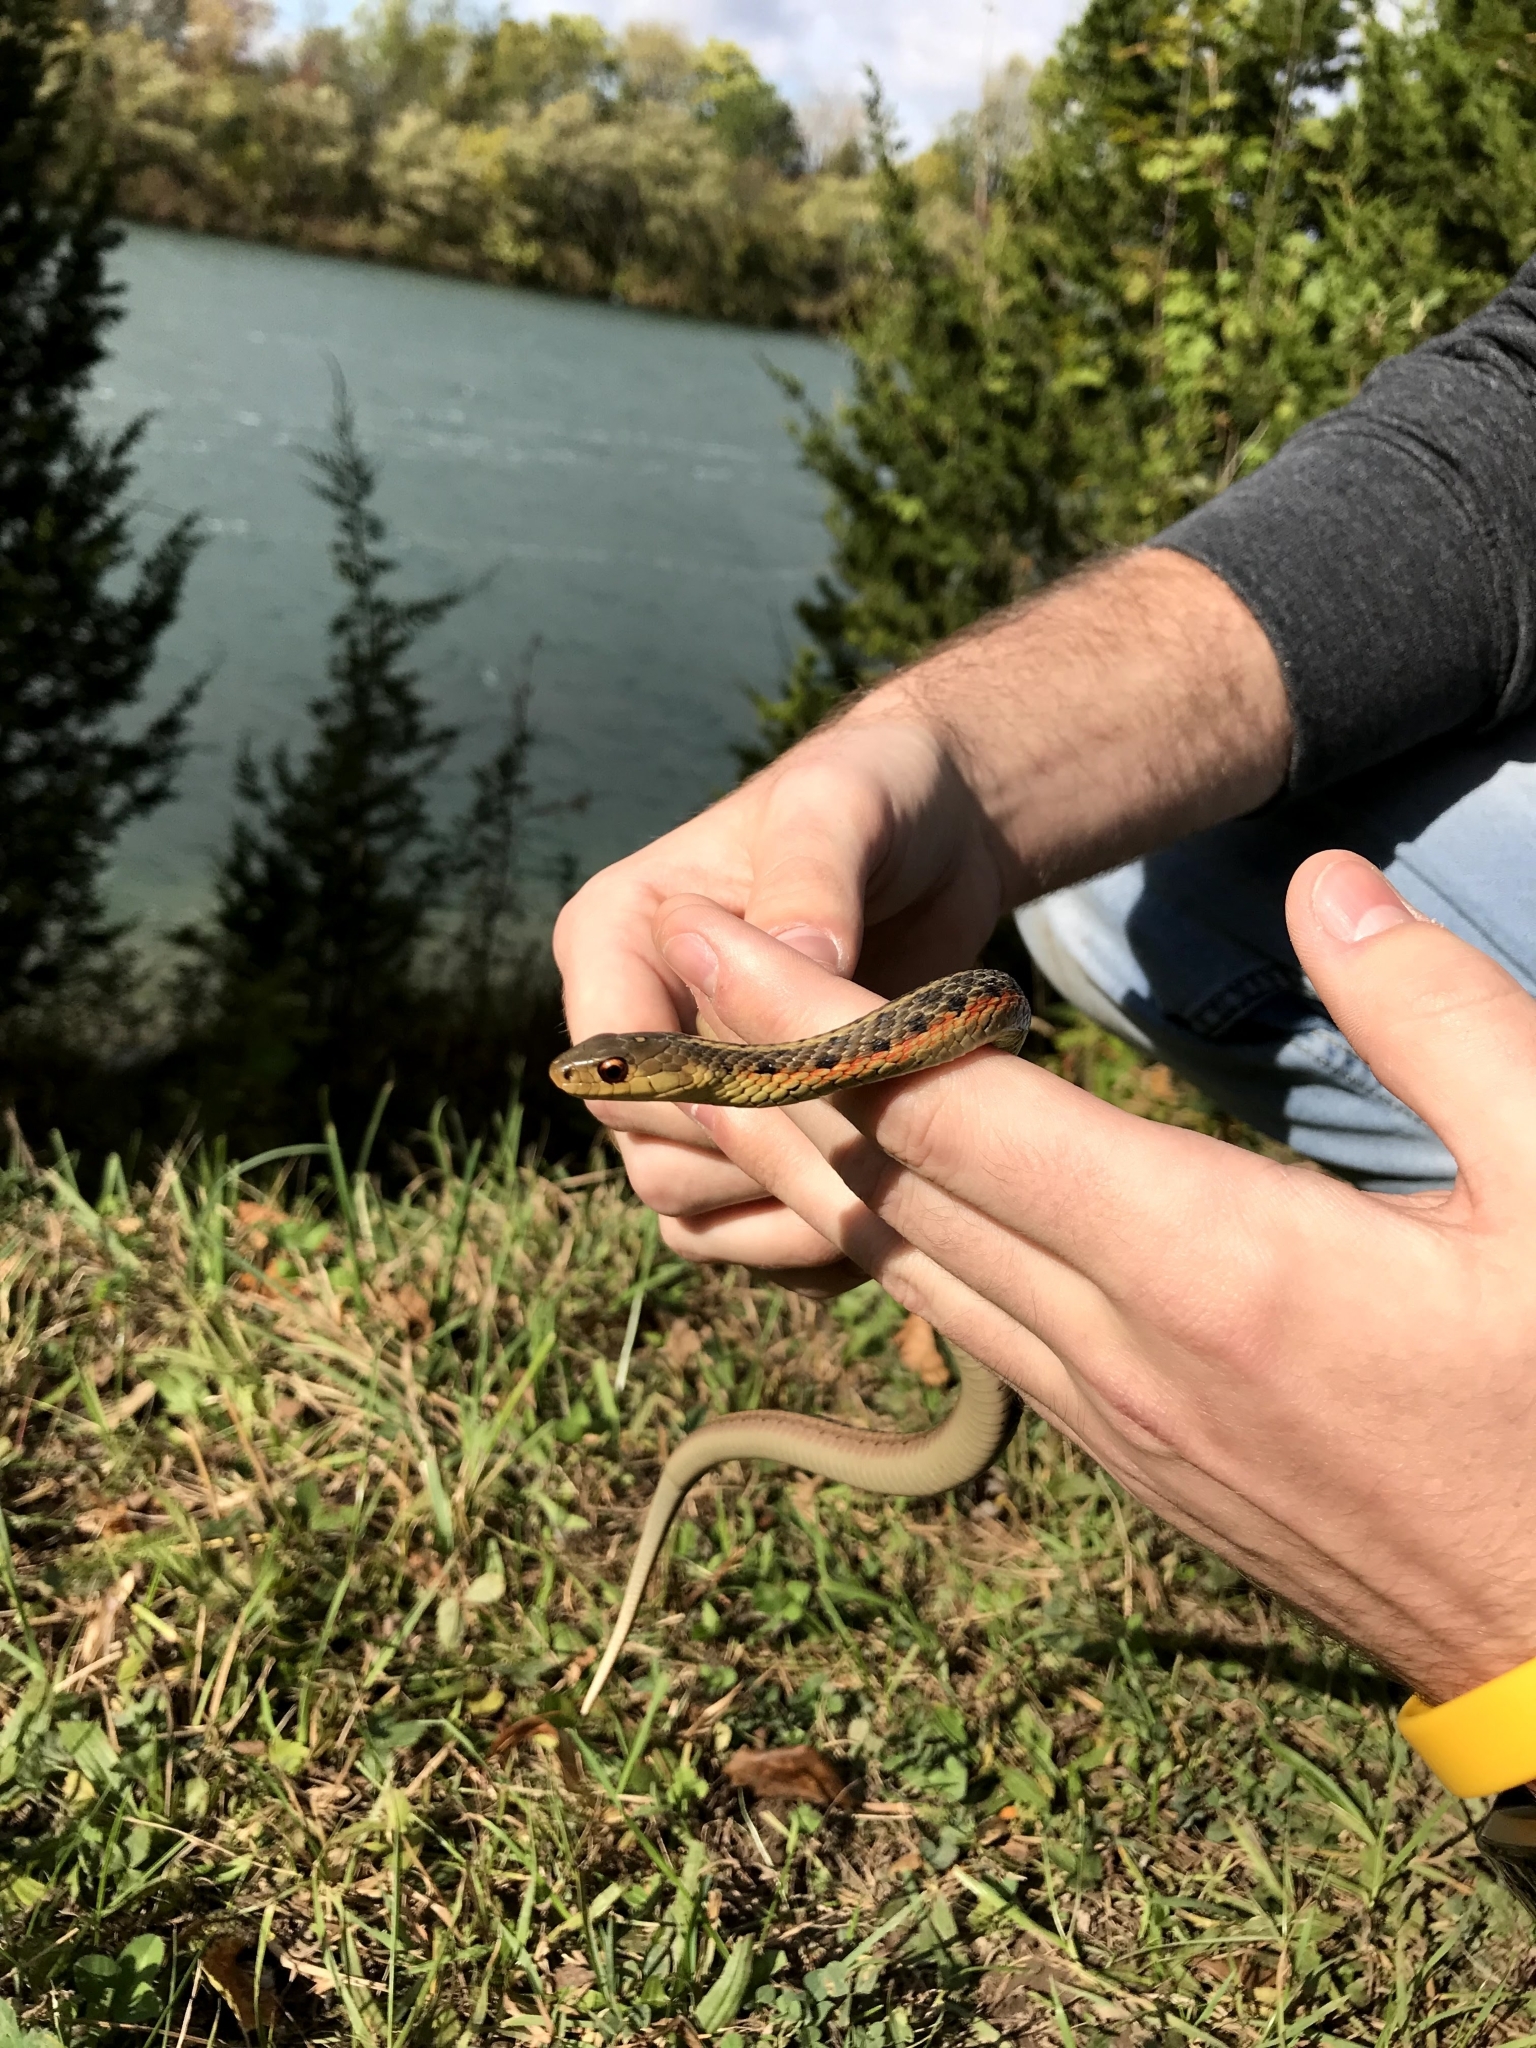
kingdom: Animalia
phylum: Chordata
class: Squamata
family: Colubridae
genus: Thamnophis
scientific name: Thamnophis sirtalis
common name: Common garter snake
